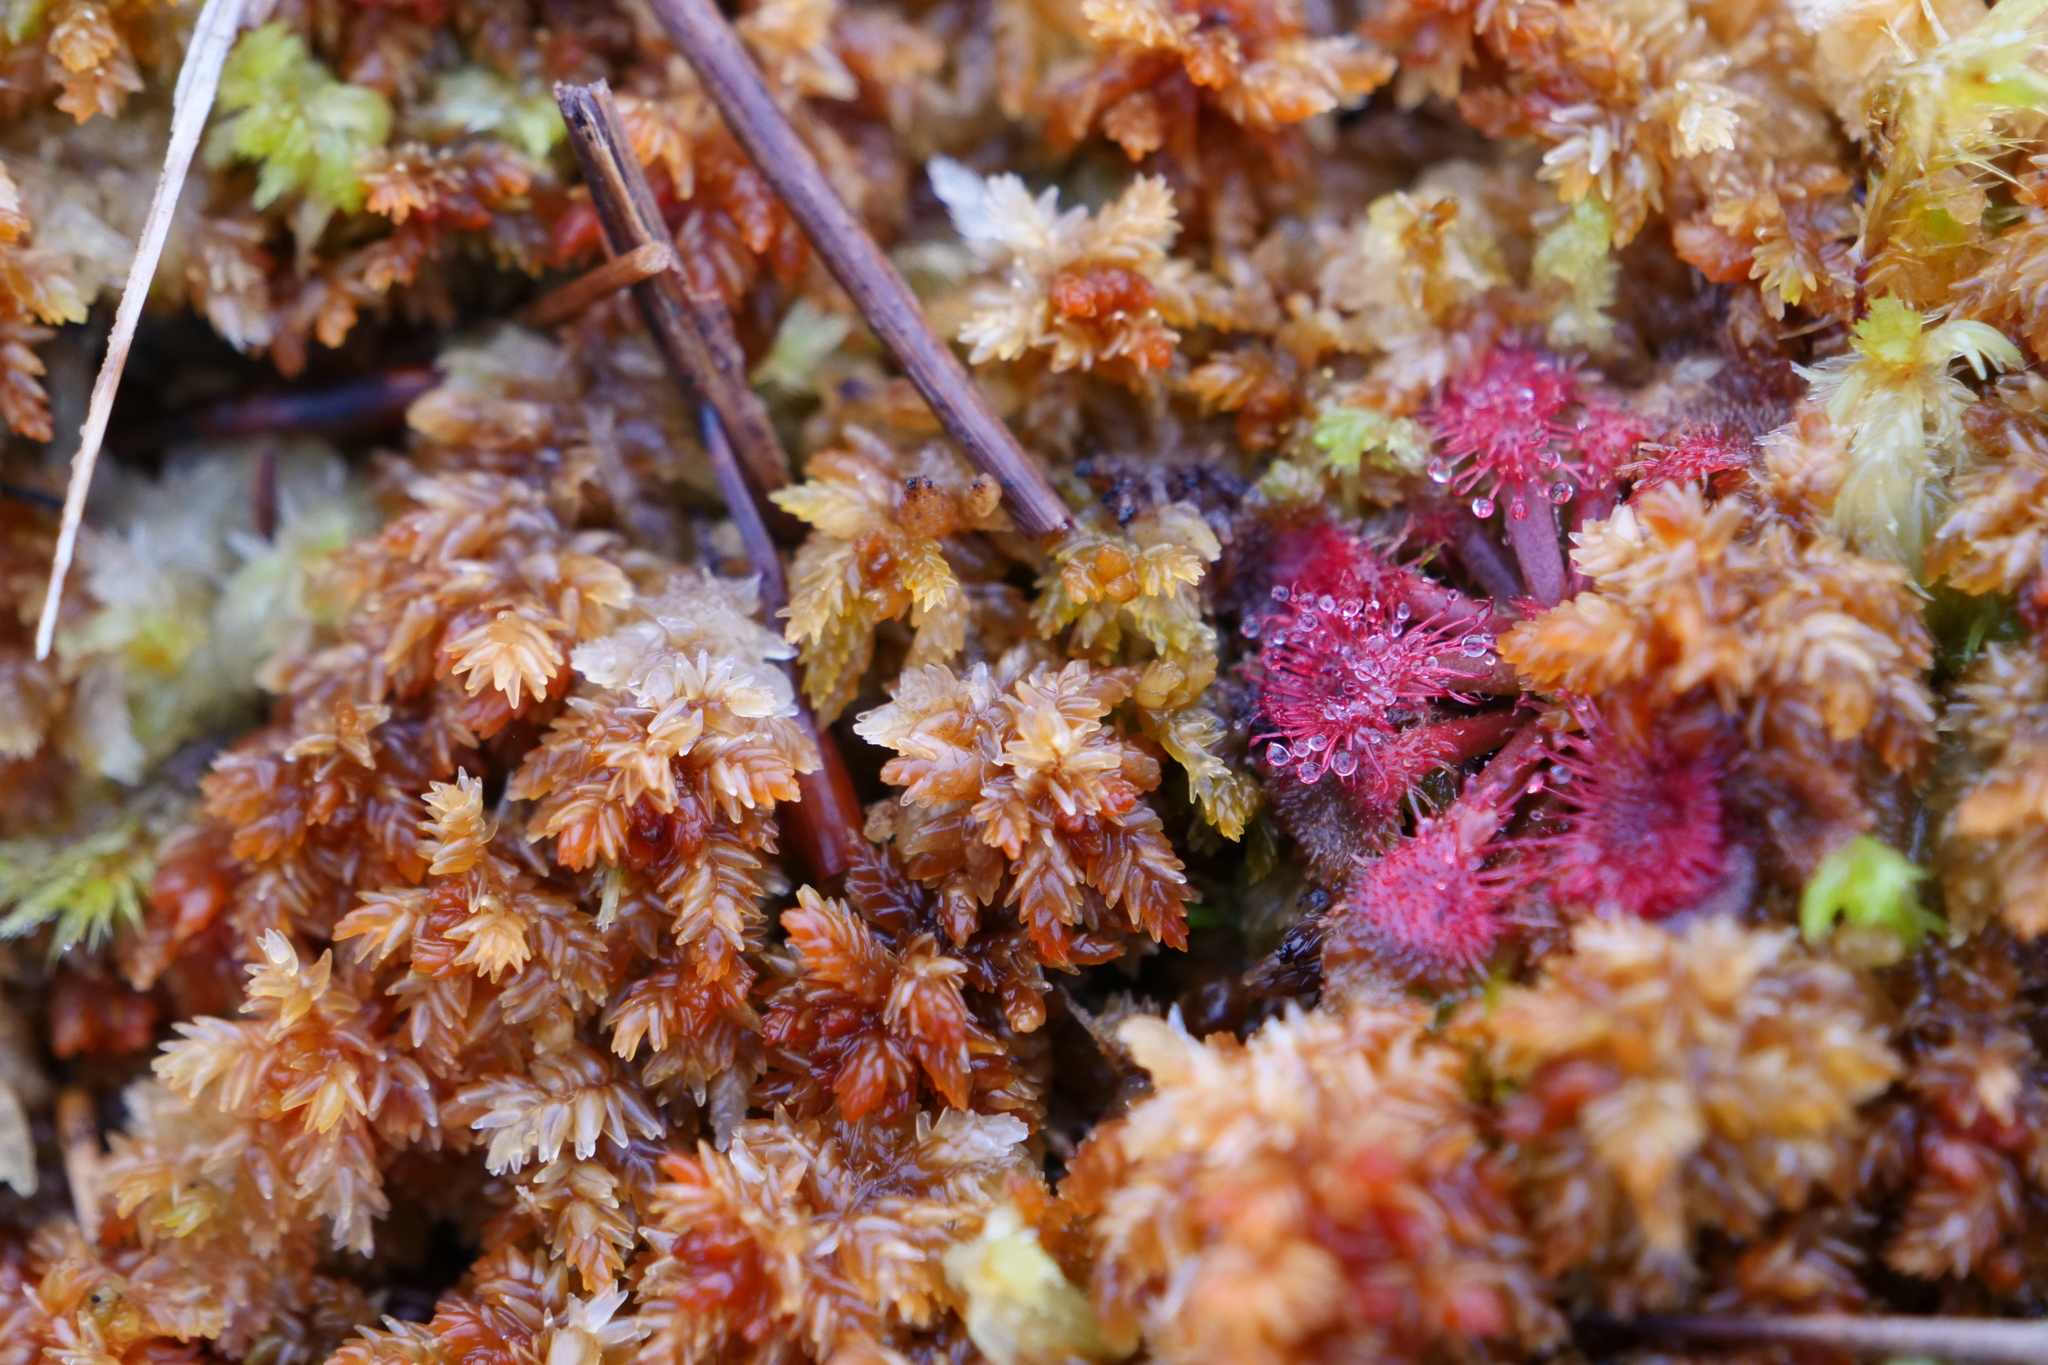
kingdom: Plantae
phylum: Tracheophyta
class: Magnoliopsida
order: Caryophyllales
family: Droseraceae
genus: Drosera
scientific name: Drosera spatulata
